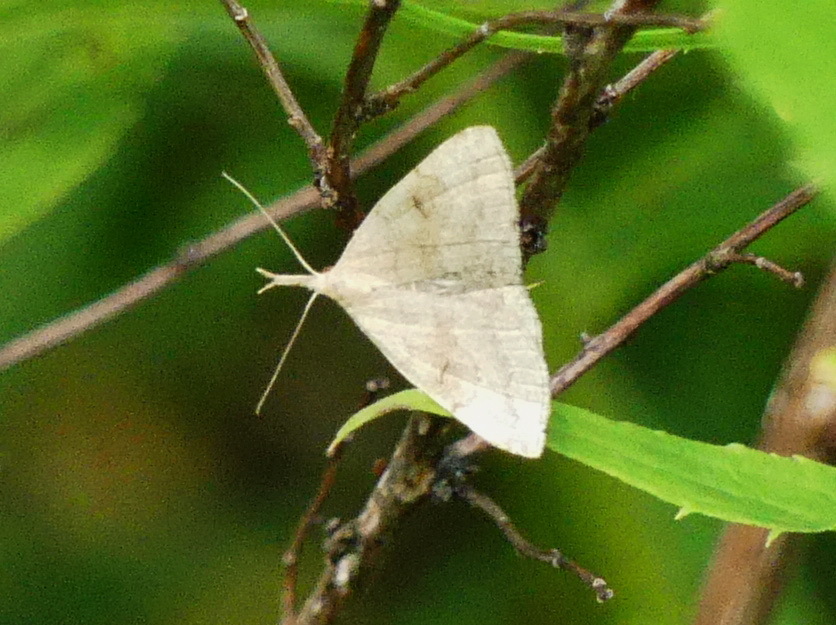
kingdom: Animalia
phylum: Arthropoda
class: Insecta
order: Lepidoptera
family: Erebidae
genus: Phalaenostola
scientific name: Phalaenostola metonalis
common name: Pale phalaenostola moth
